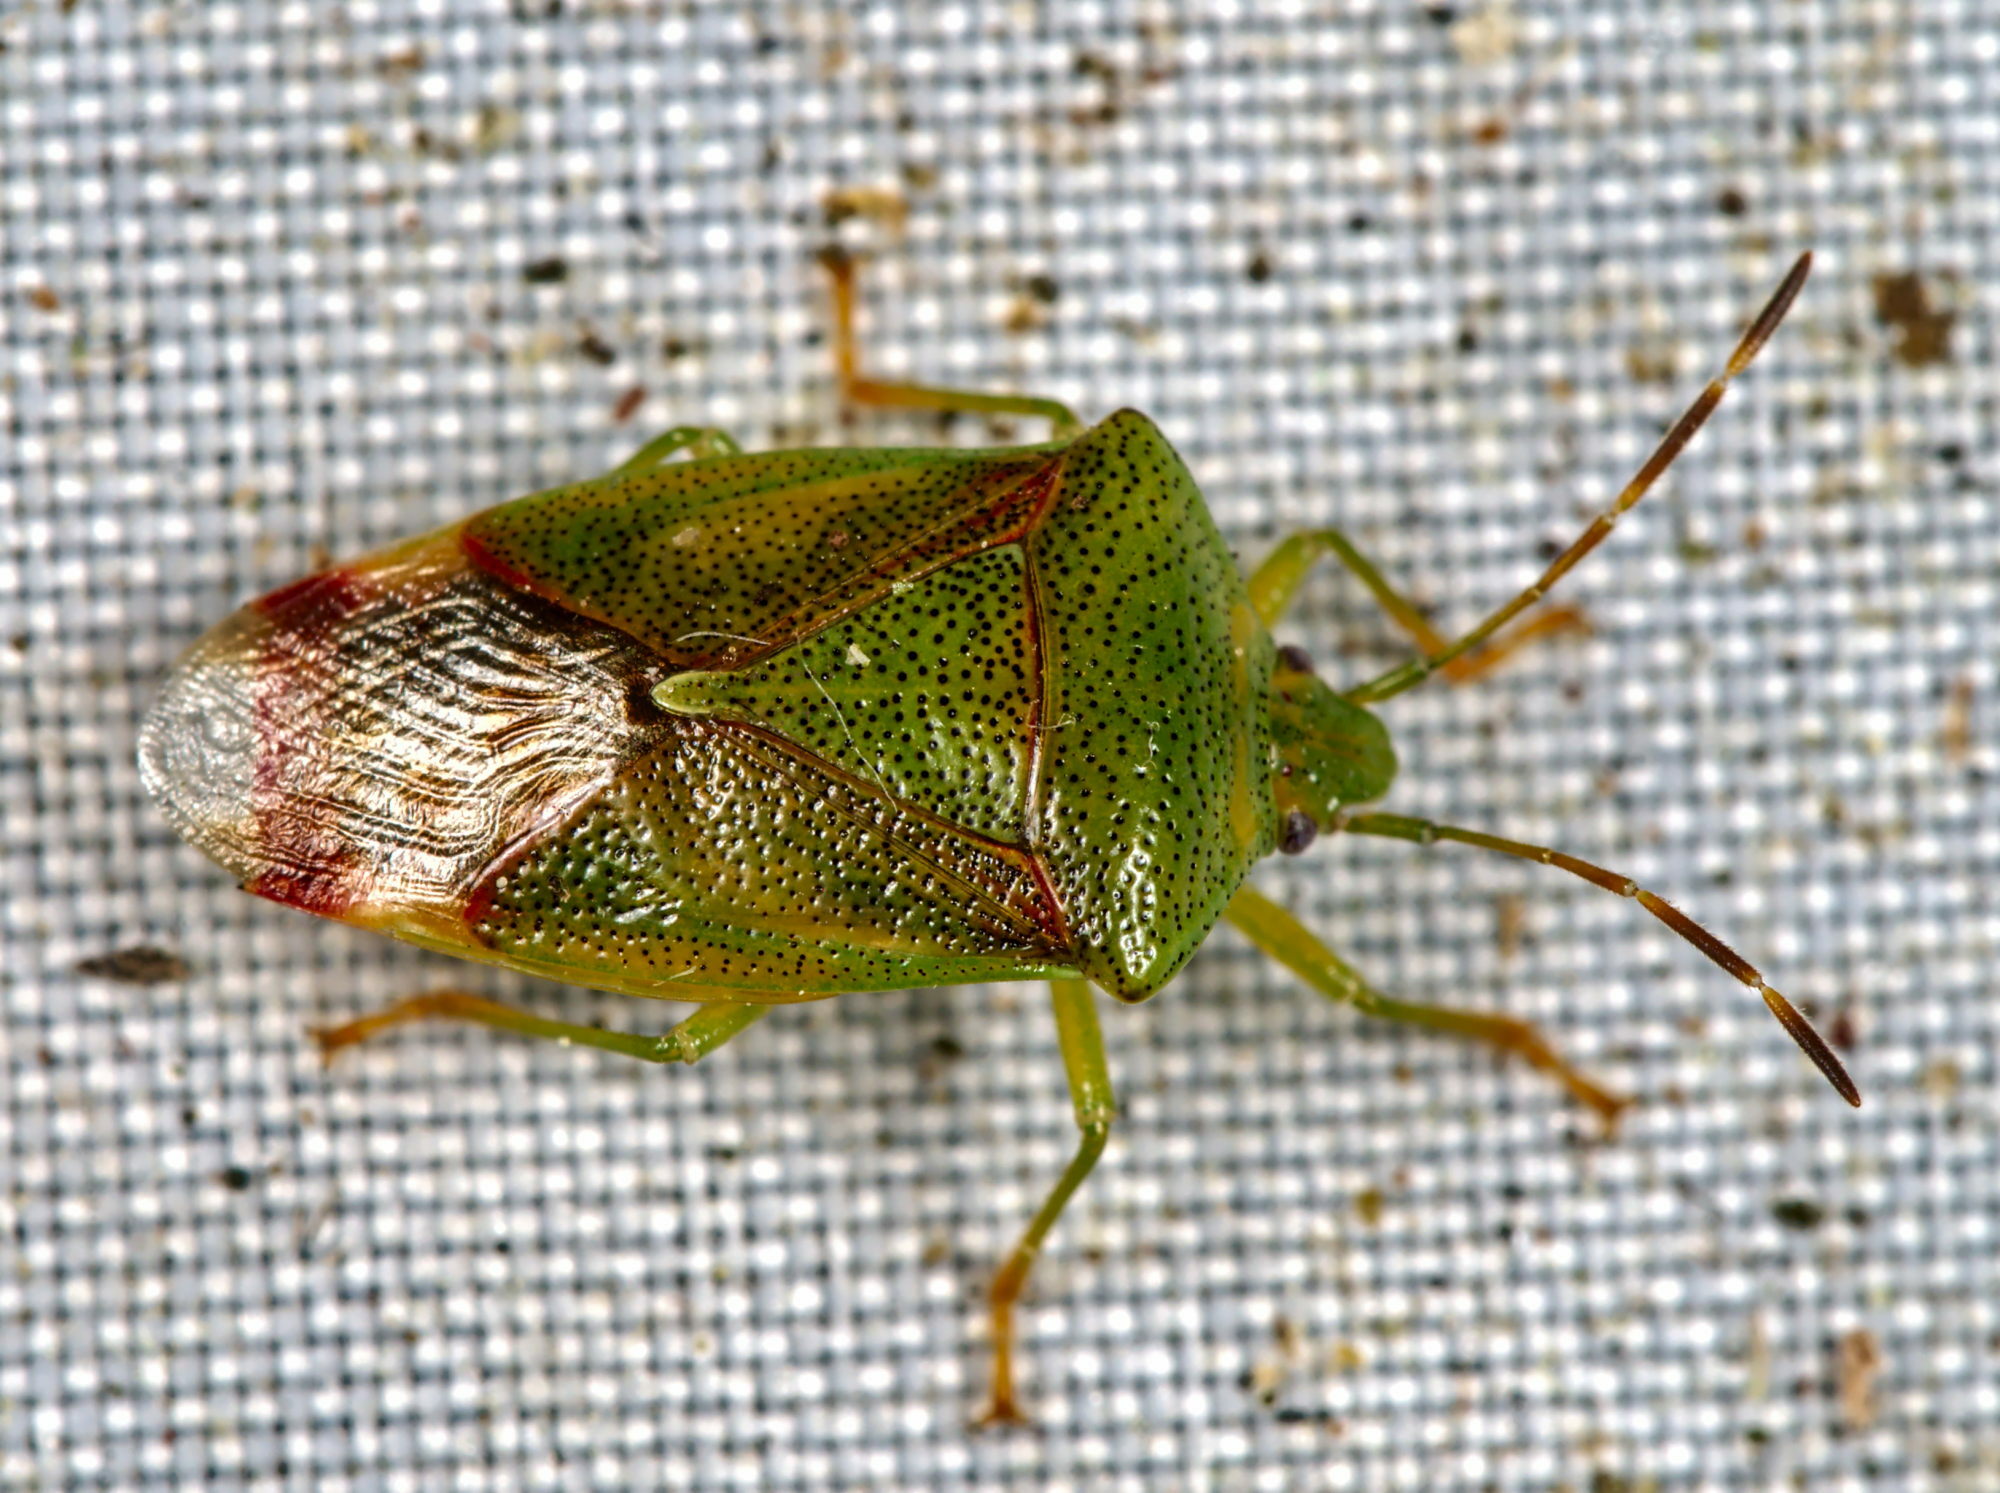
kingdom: Animalia
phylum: Arthropoda
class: Insecta
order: Hemiptera
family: Acanthosomatidae
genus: Elasmostethus
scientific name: Elasmostethus interstinctus
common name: Birch shieldbug
